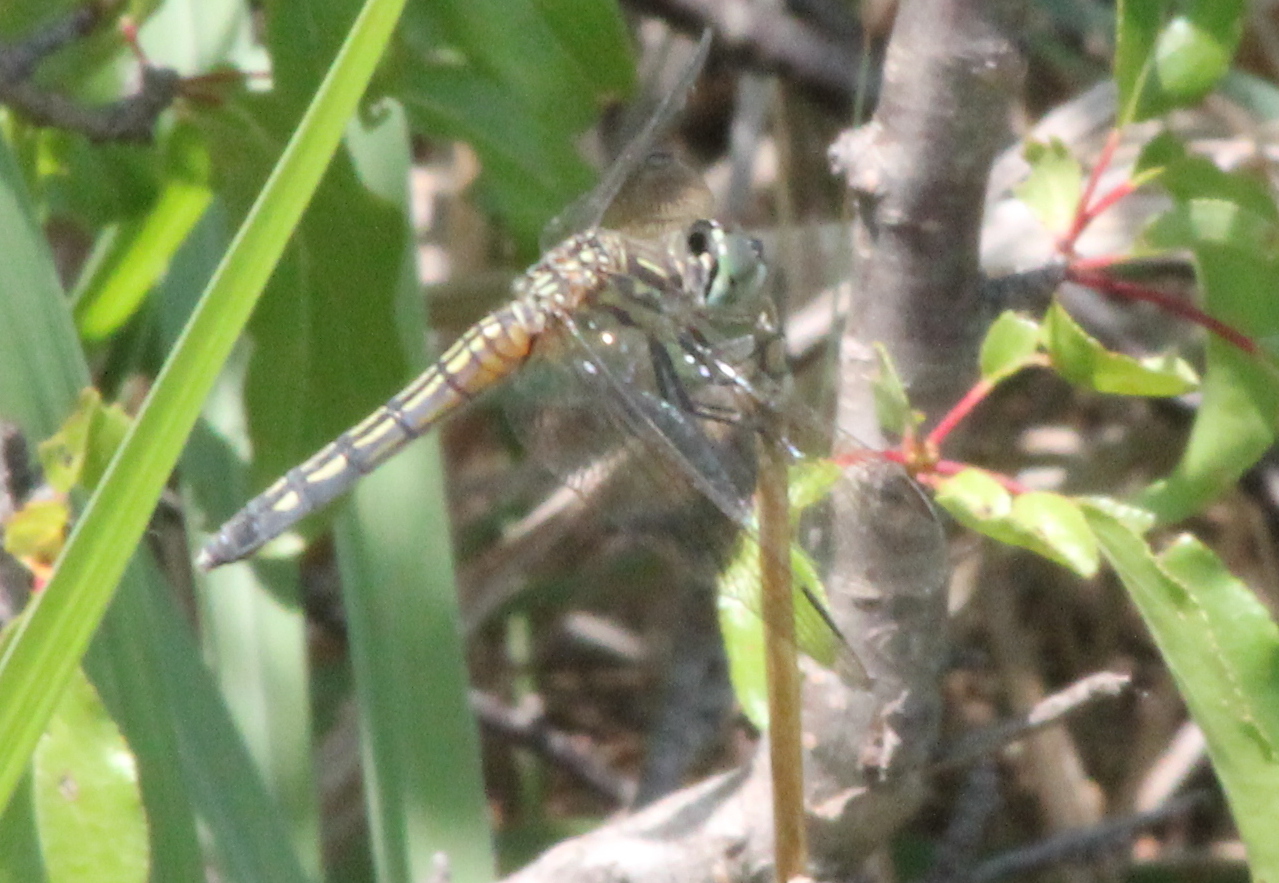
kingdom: Animalia
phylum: Arthropoda
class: Insecta
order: Odonata
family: Libellulidae
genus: Pachydiplax
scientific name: Pachydiplax longipennis
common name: Blue dasher
